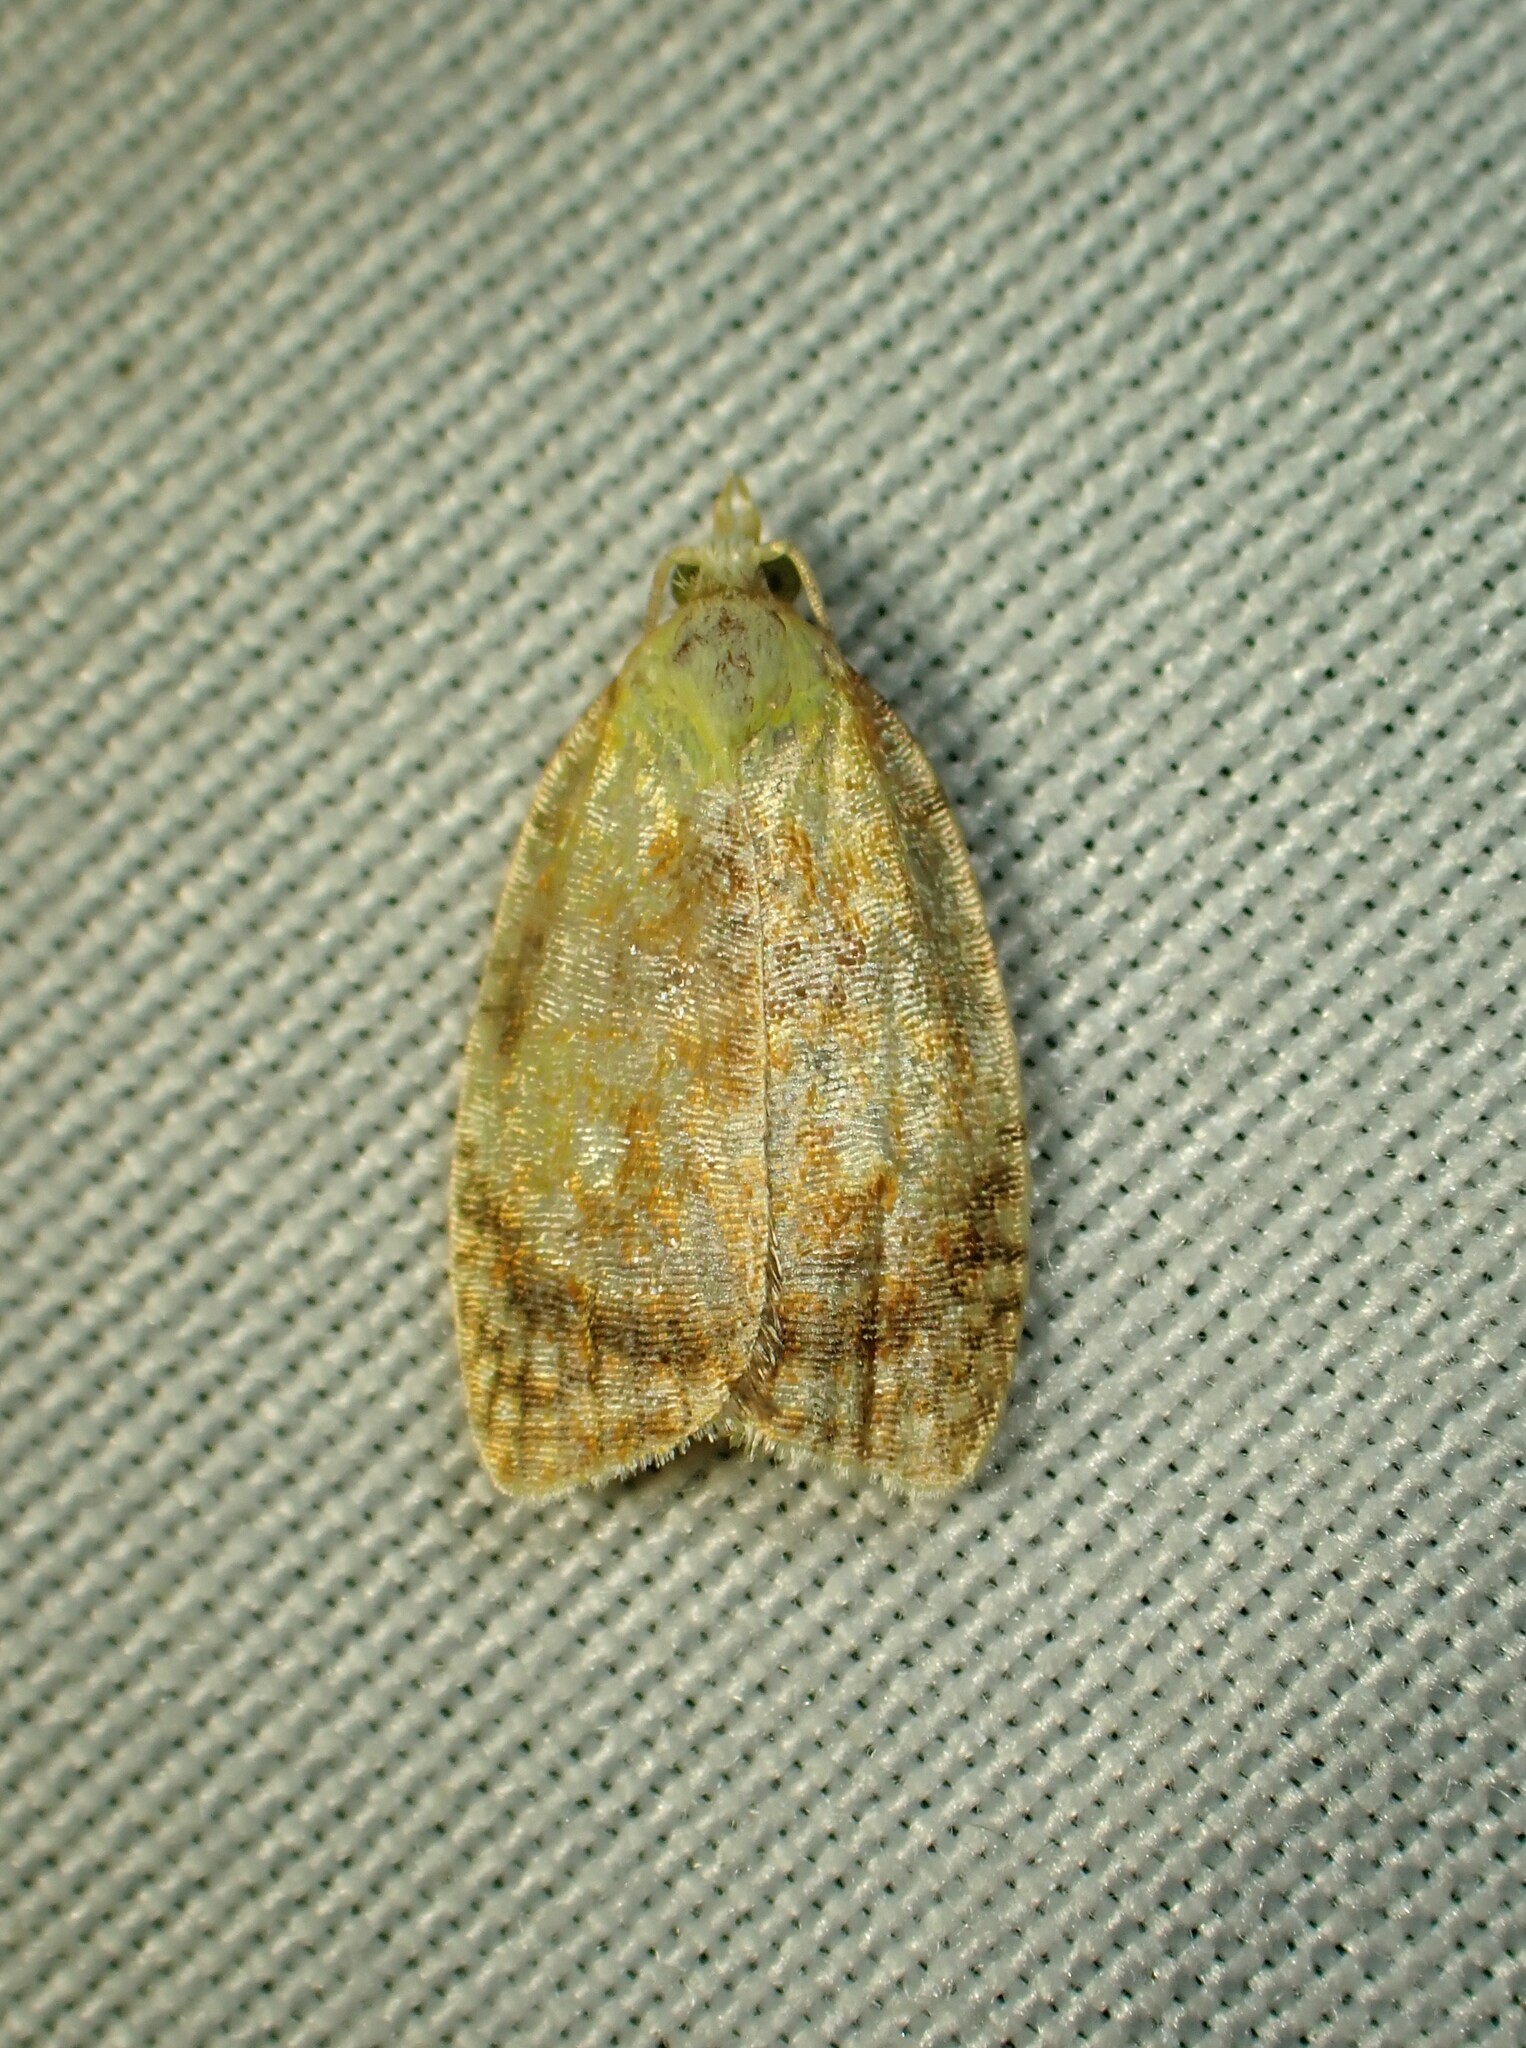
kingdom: Animalia
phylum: Arthropoda
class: Insecta
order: Lepidoptera
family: Tortricidae
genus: Acleris
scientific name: Acleris curvalana
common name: Blueberry leaftier moth
